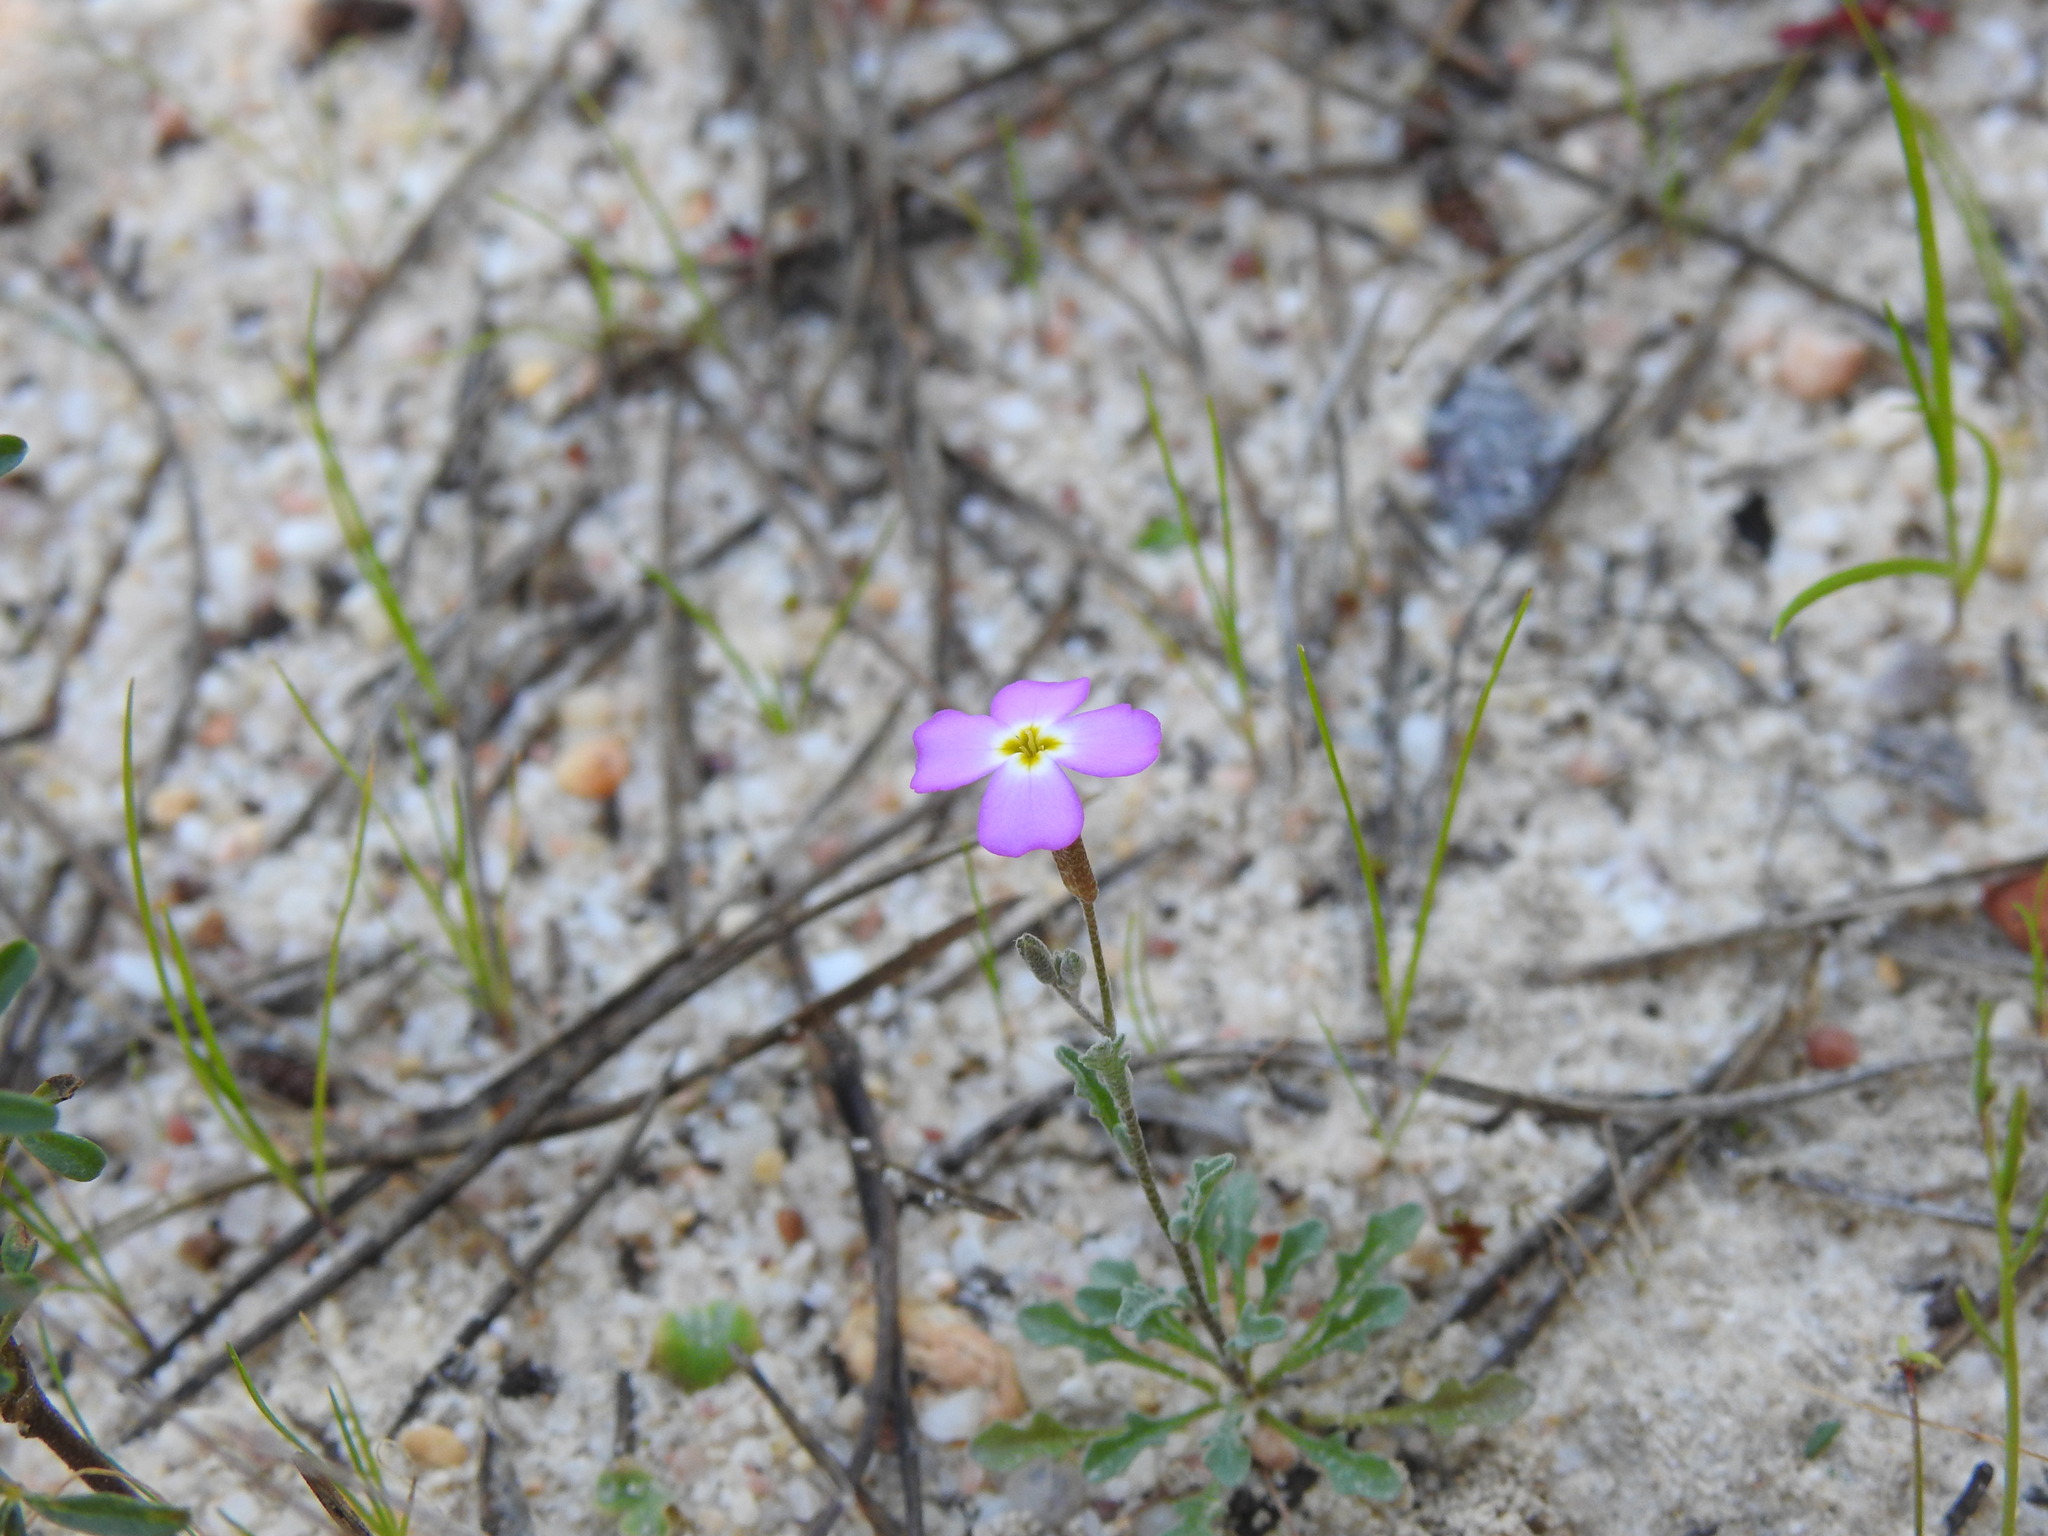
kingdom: Plantae
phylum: Tracheophyta
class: Magnoliopsida
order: Brassicales
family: Brassicaceae
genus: Marcuskochia
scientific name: Marcuskochia triloba
